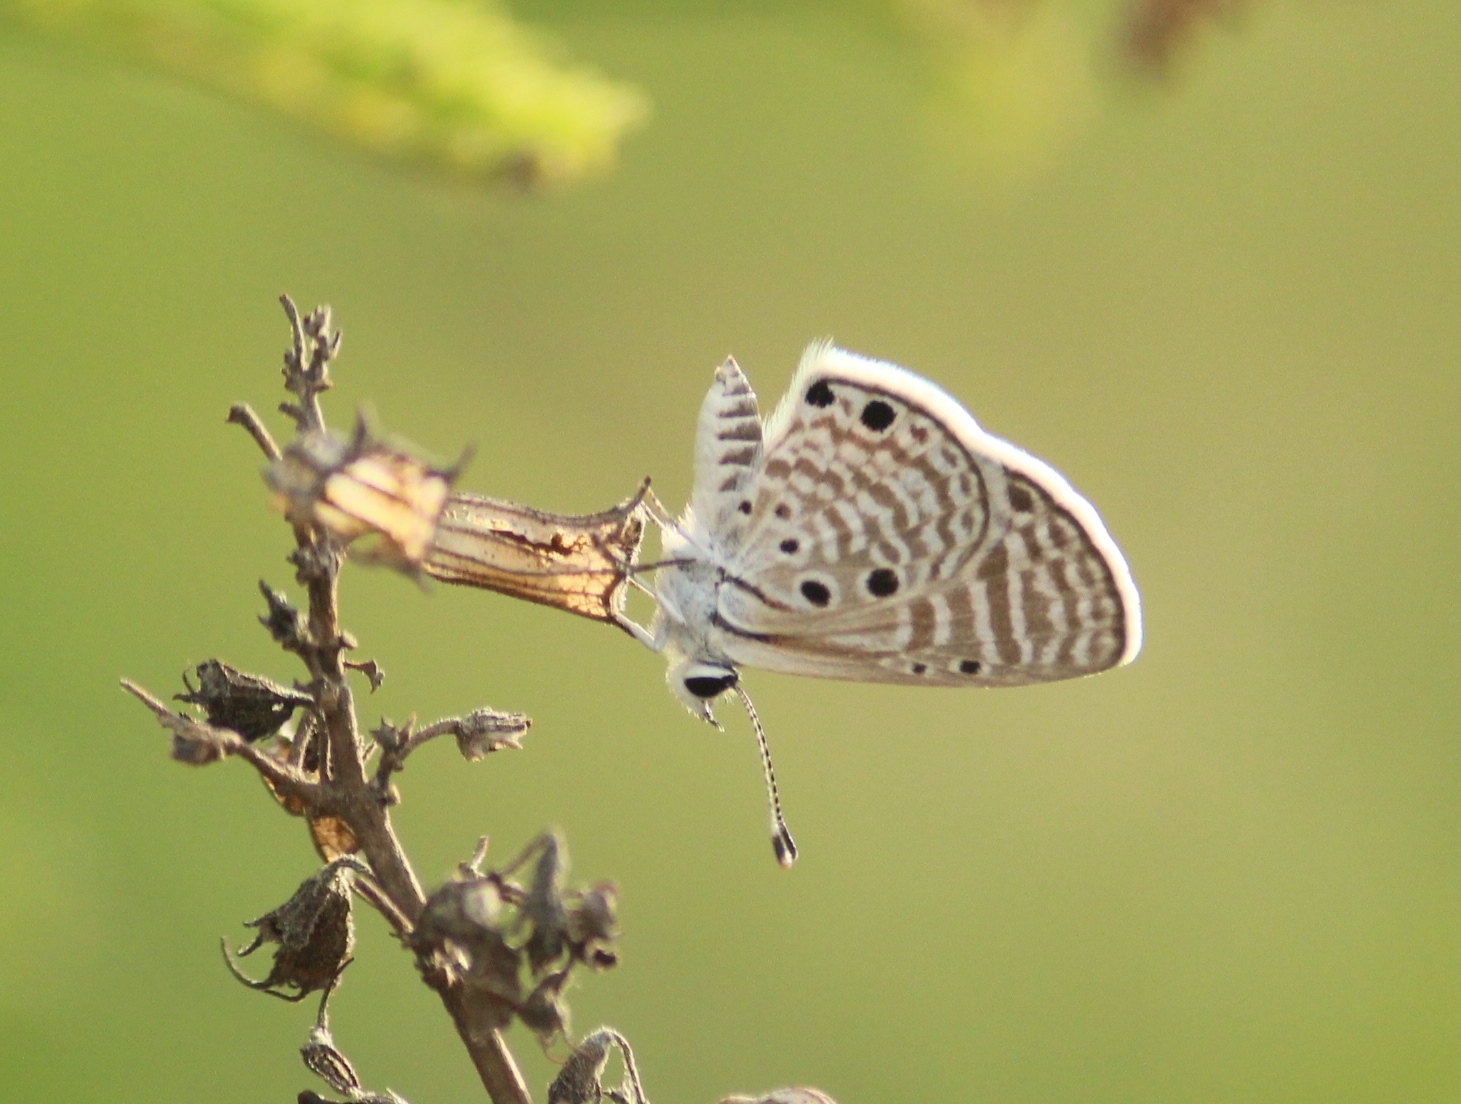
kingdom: Animalia
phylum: Arthropoda
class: Insecta
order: Lepidoptera
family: Lycaenidae
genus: Azanus
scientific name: Azanus ubaldus
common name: Desert babul blue
